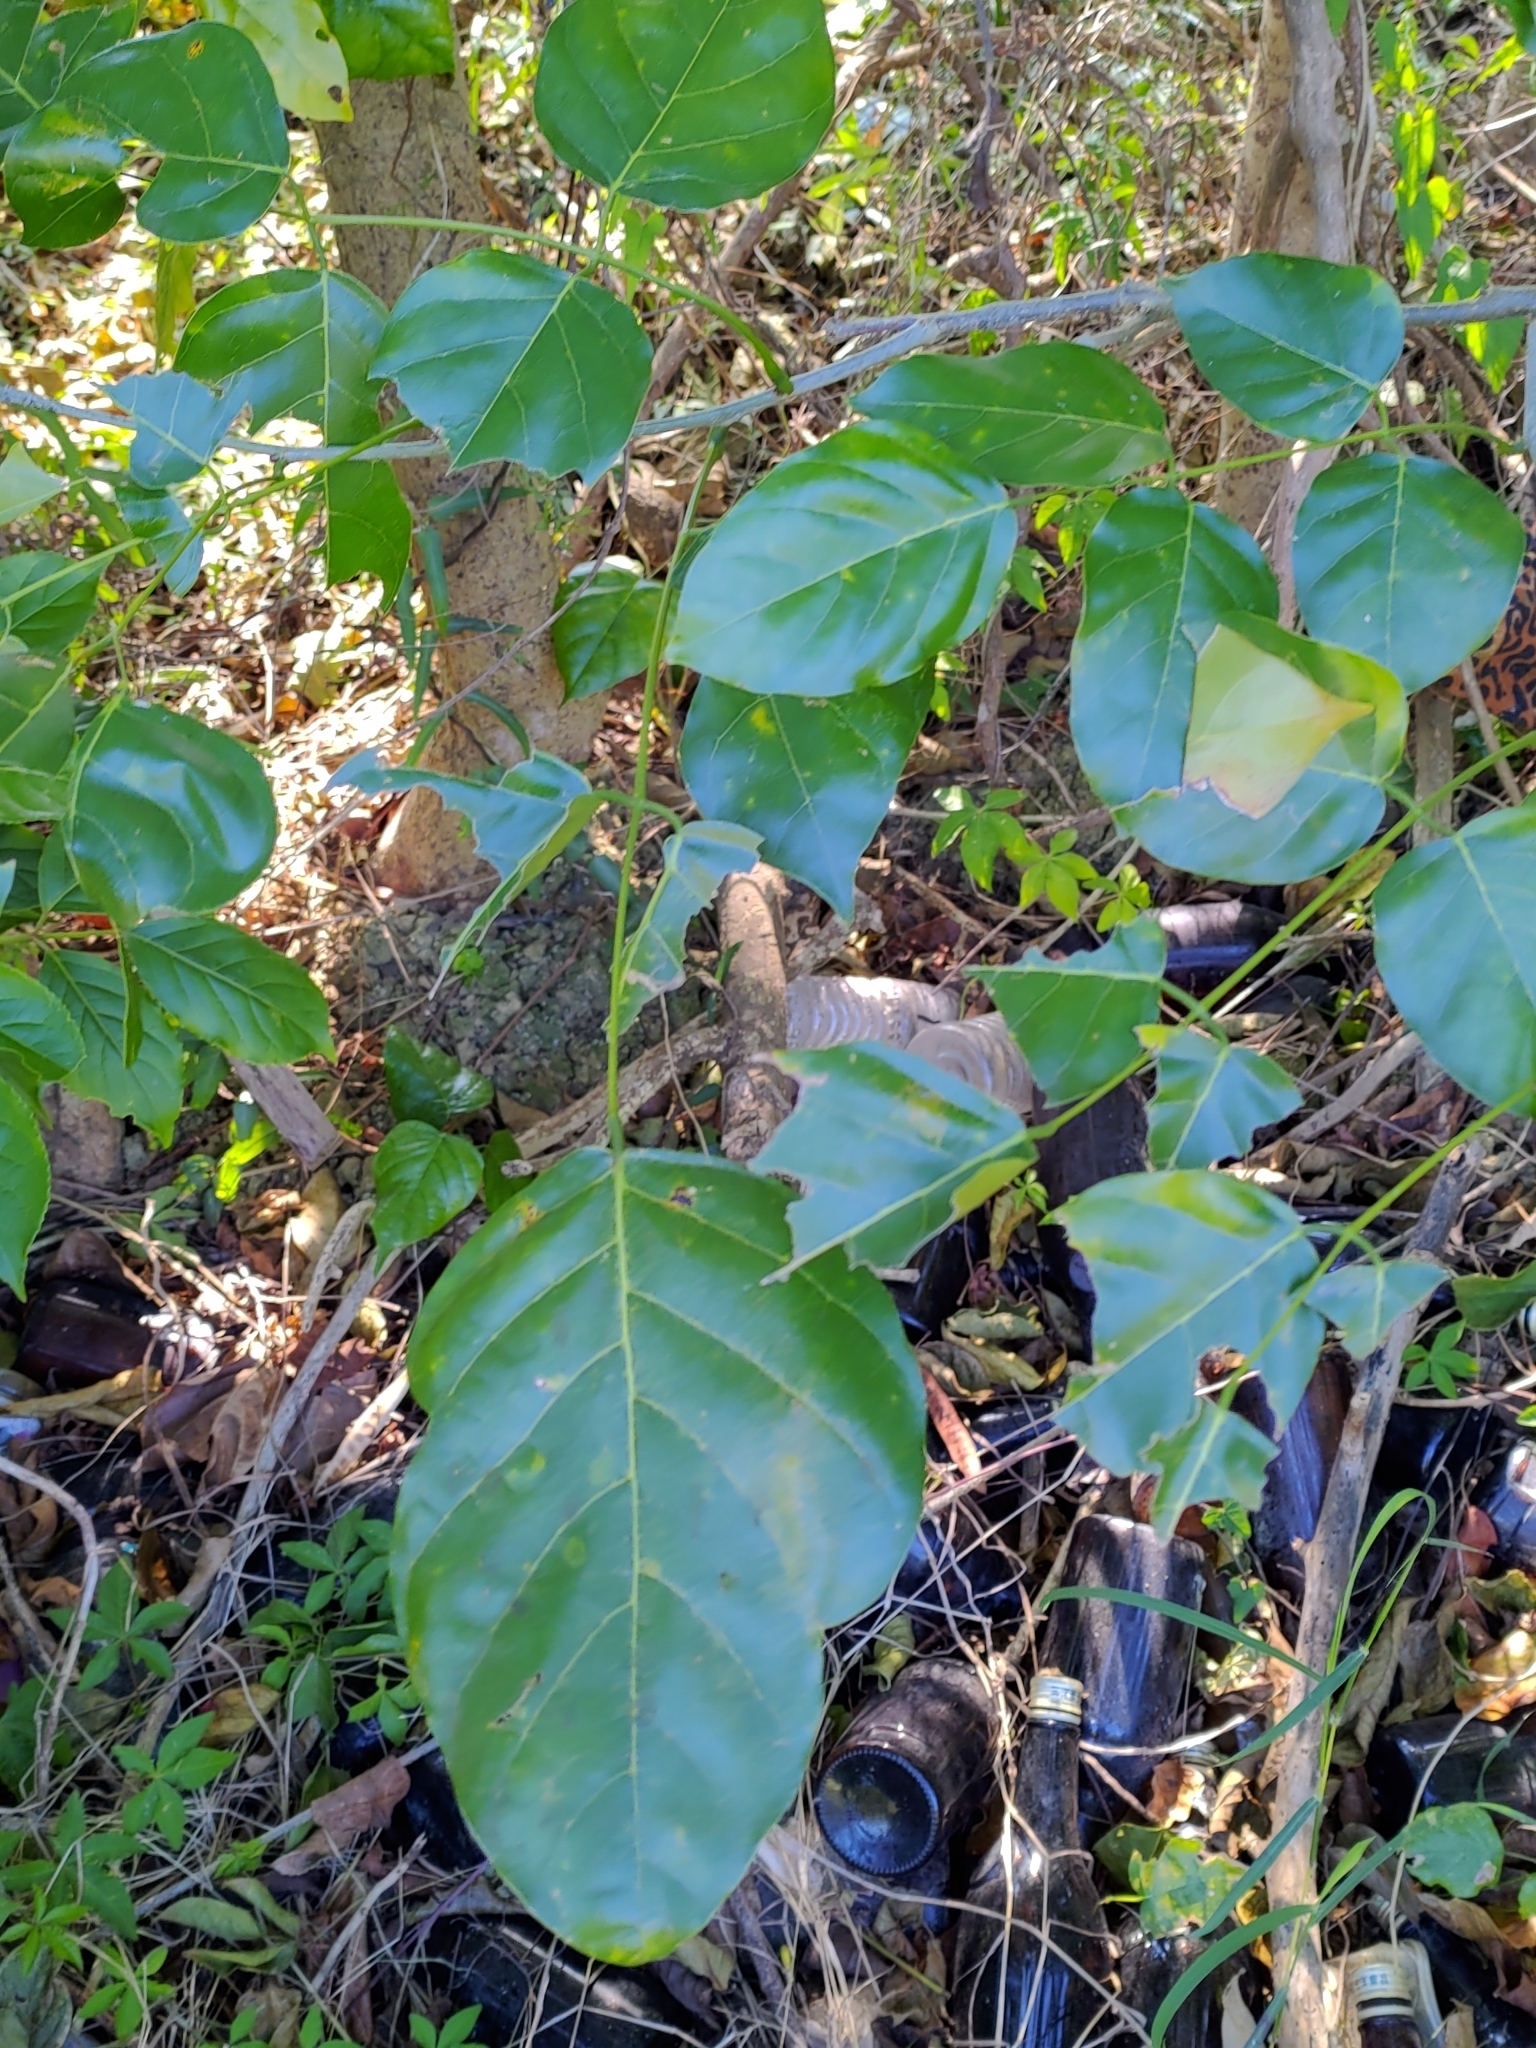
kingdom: Plantae
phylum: Tracheophyta
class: Magnoliopsida
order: Fabales
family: Fabaceae
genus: Pongamia
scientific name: Pongamia pinnata
